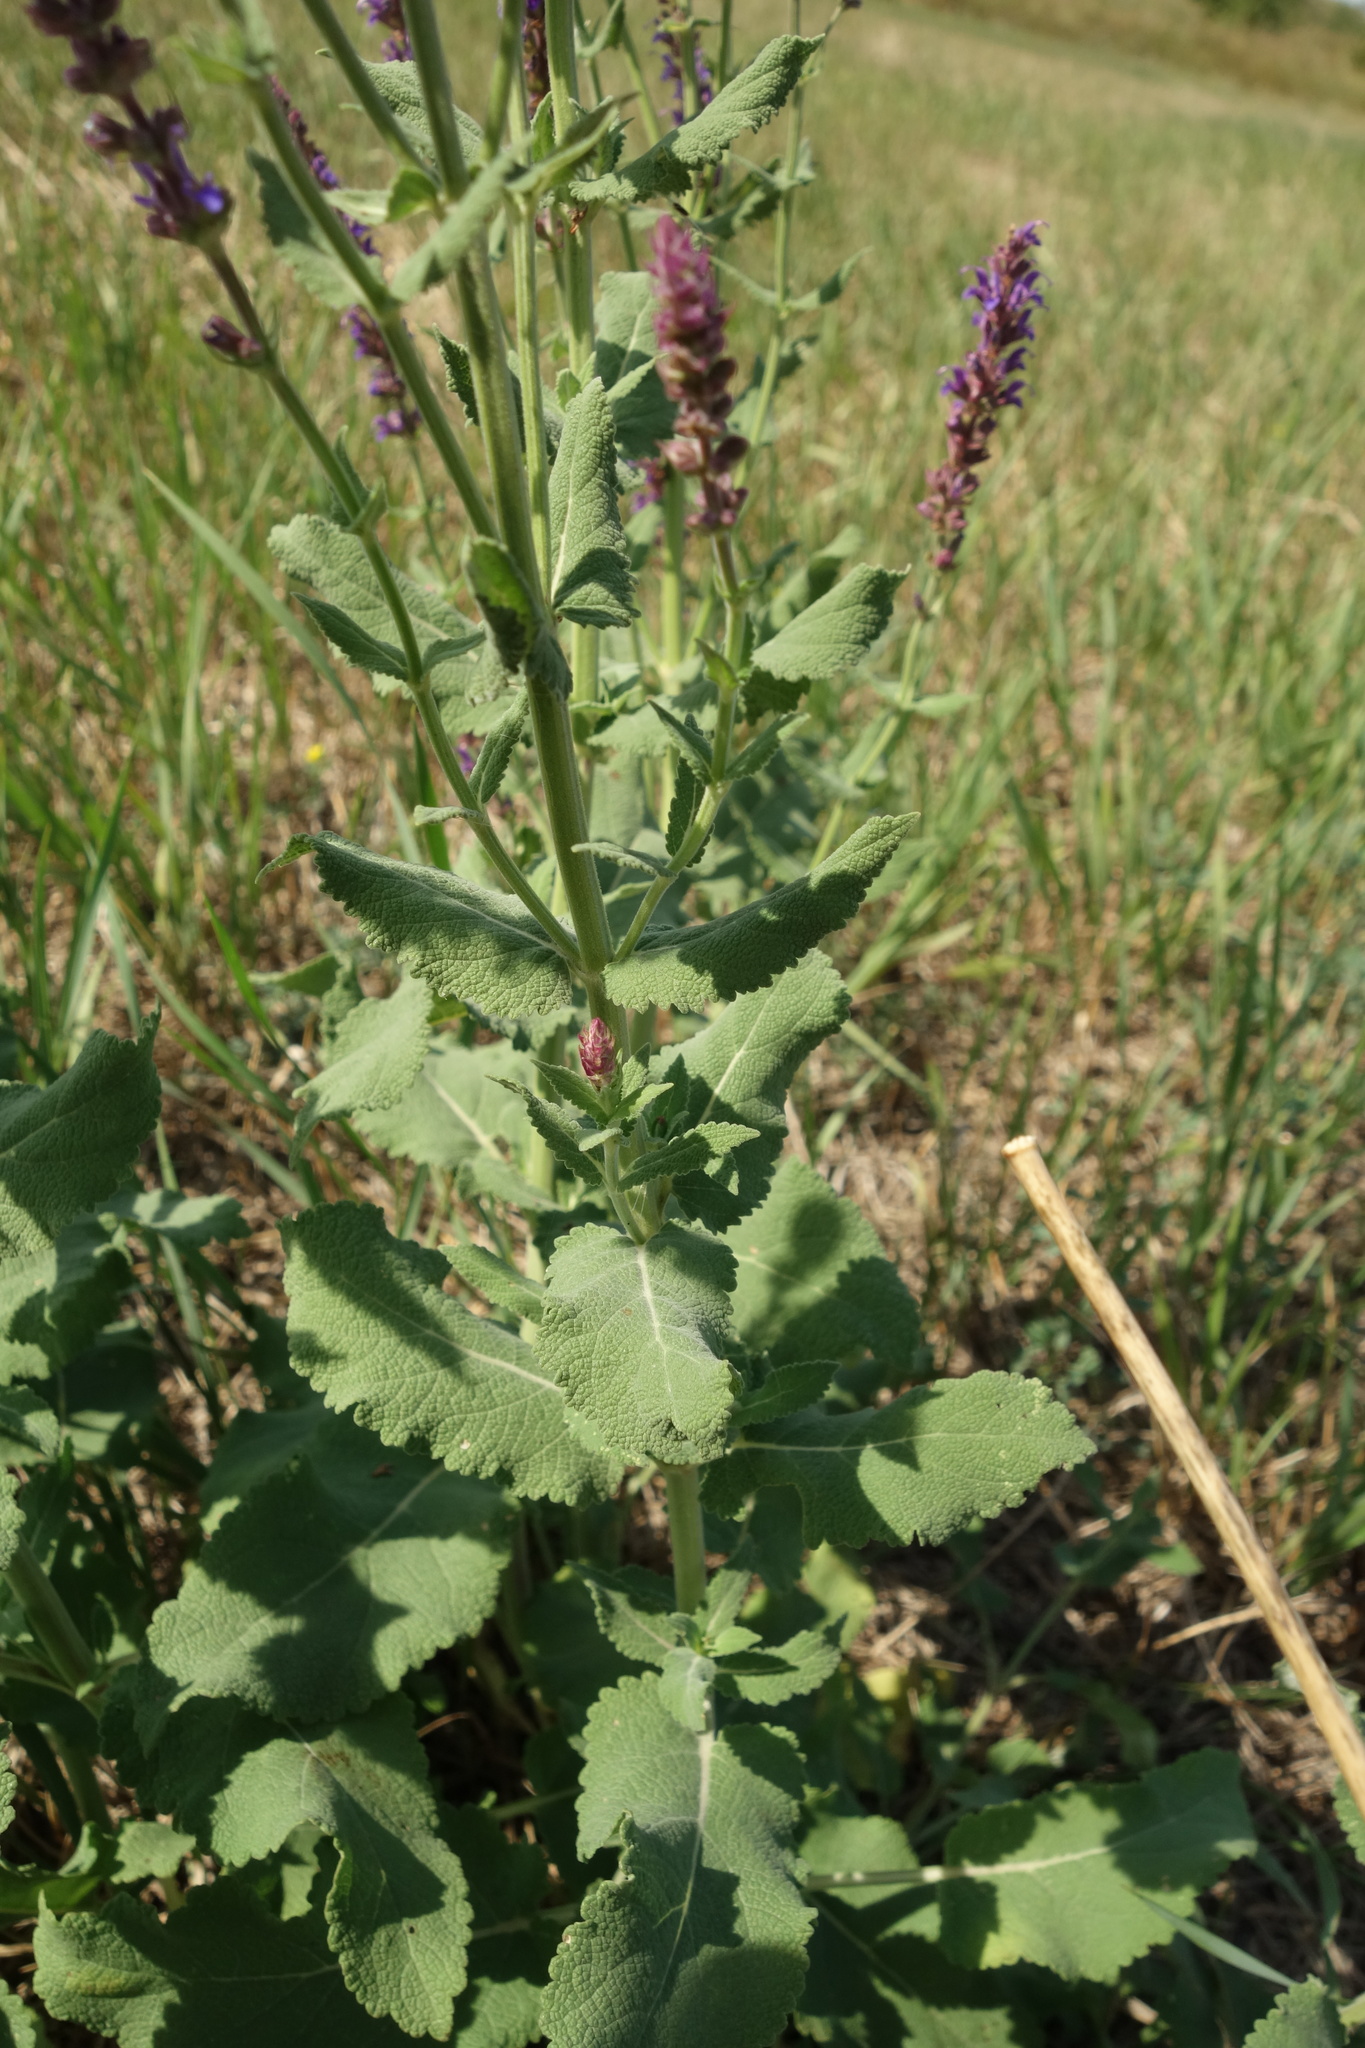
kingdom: Plantae
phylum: Tracheophyta
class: Magnoliopsida
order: Lamiales
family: Lamiaceae
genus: Salvia
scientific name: Salvia nemorosa
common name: Balkan clary
